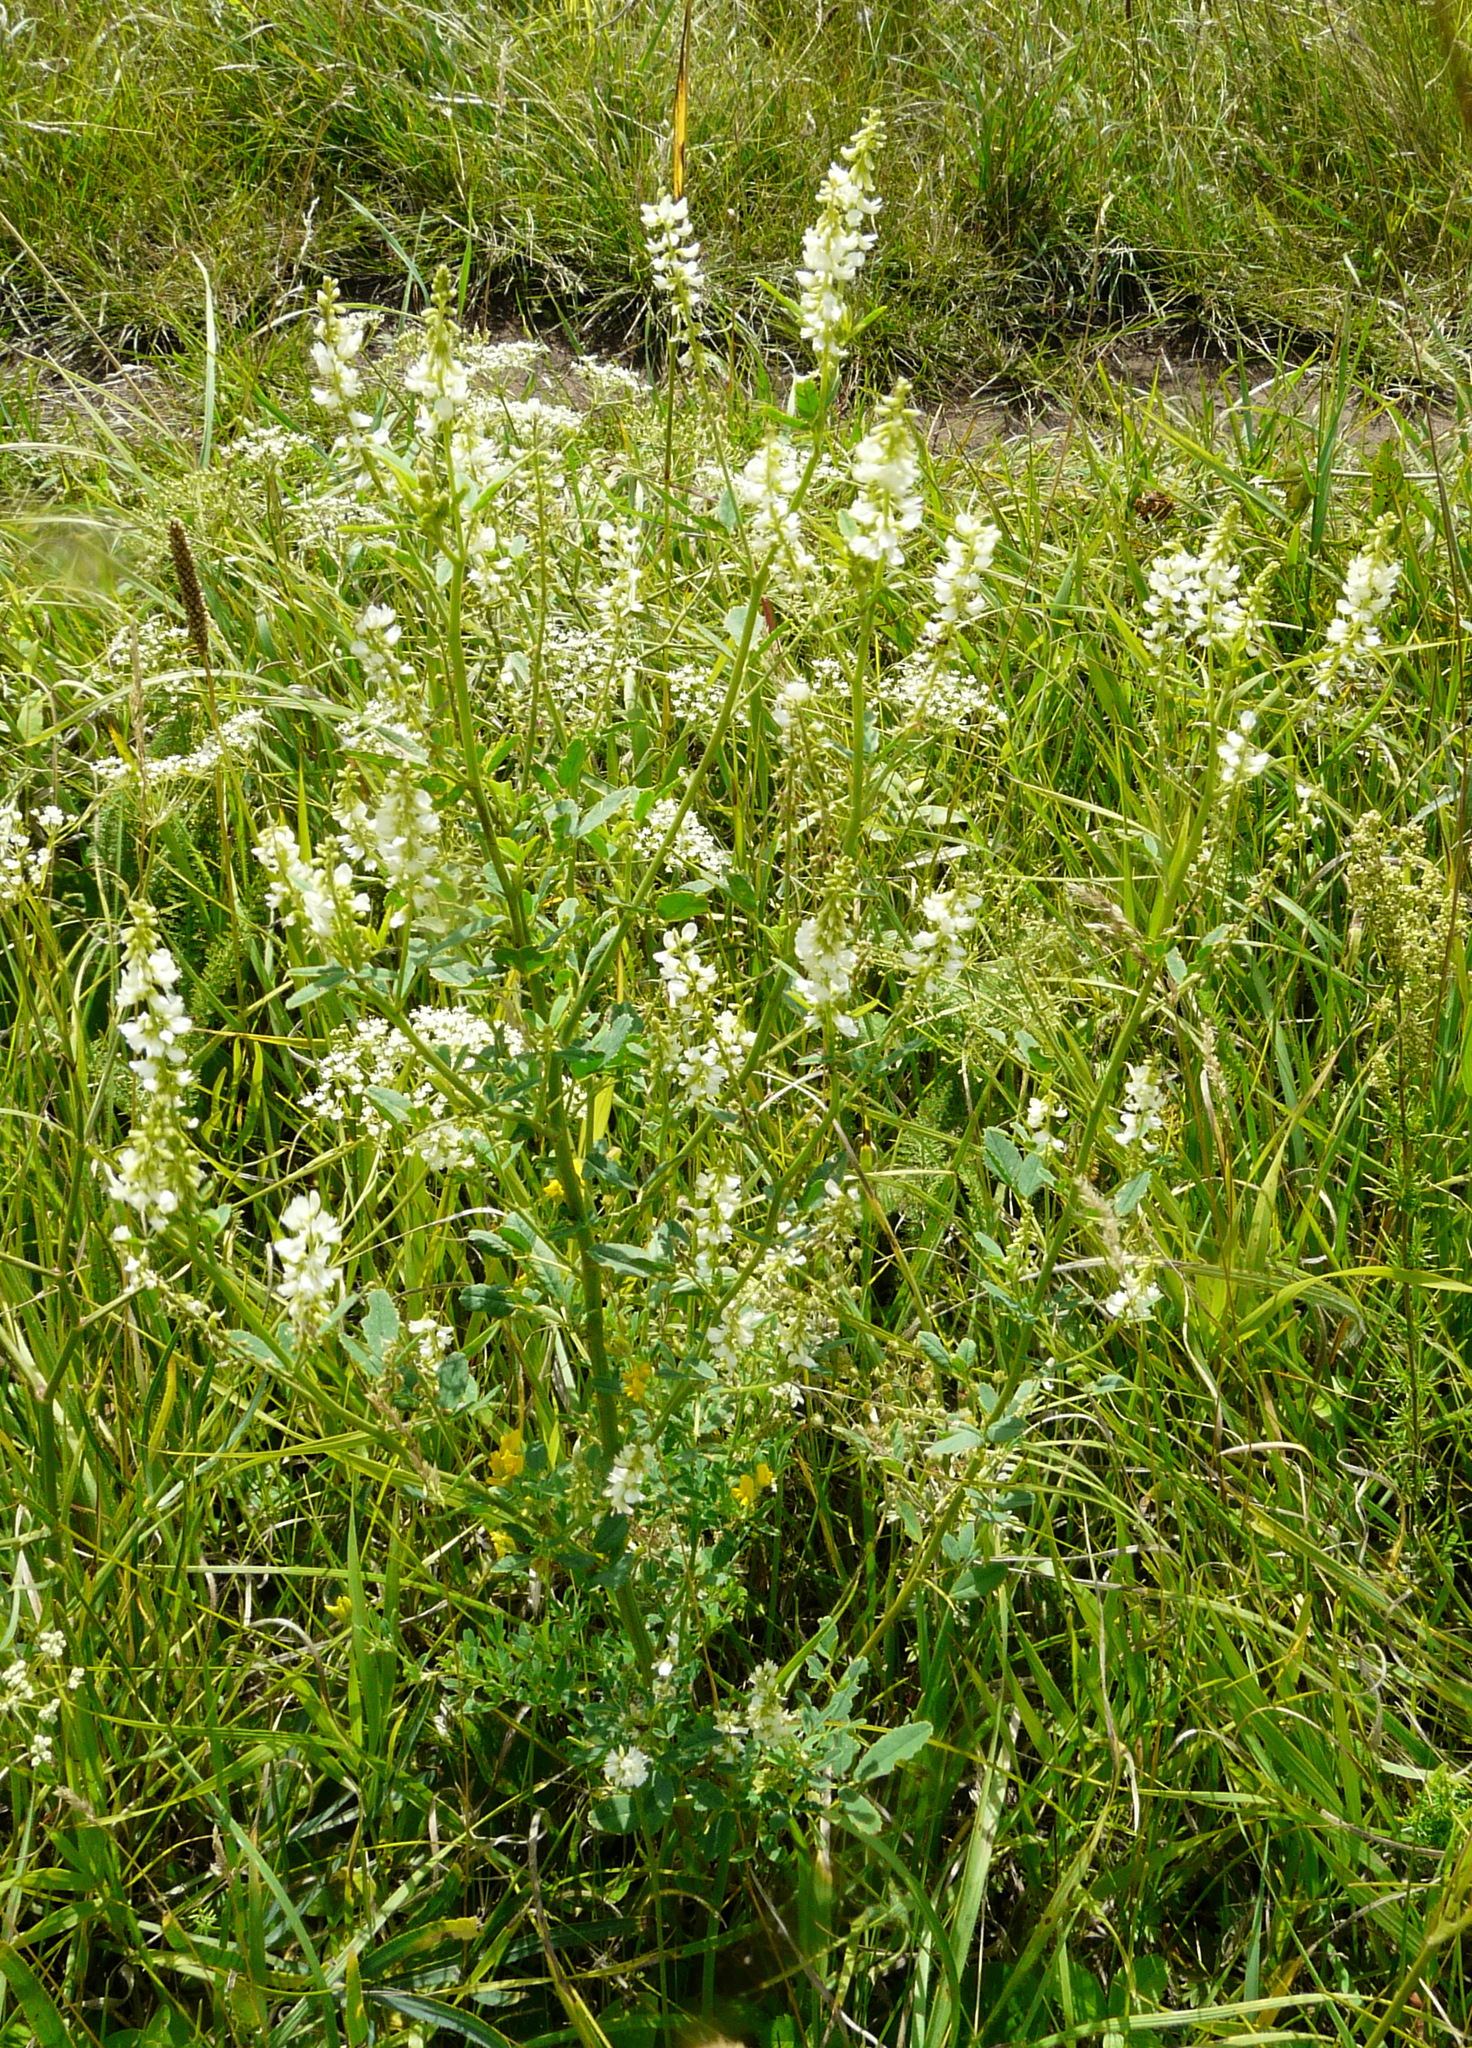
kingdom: Plantae
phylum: Tracheophyta
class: Magnoliopsida
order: Fabales
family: Fabaceae
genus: Melilotus
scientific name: Melilotus albus
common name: White melilot
